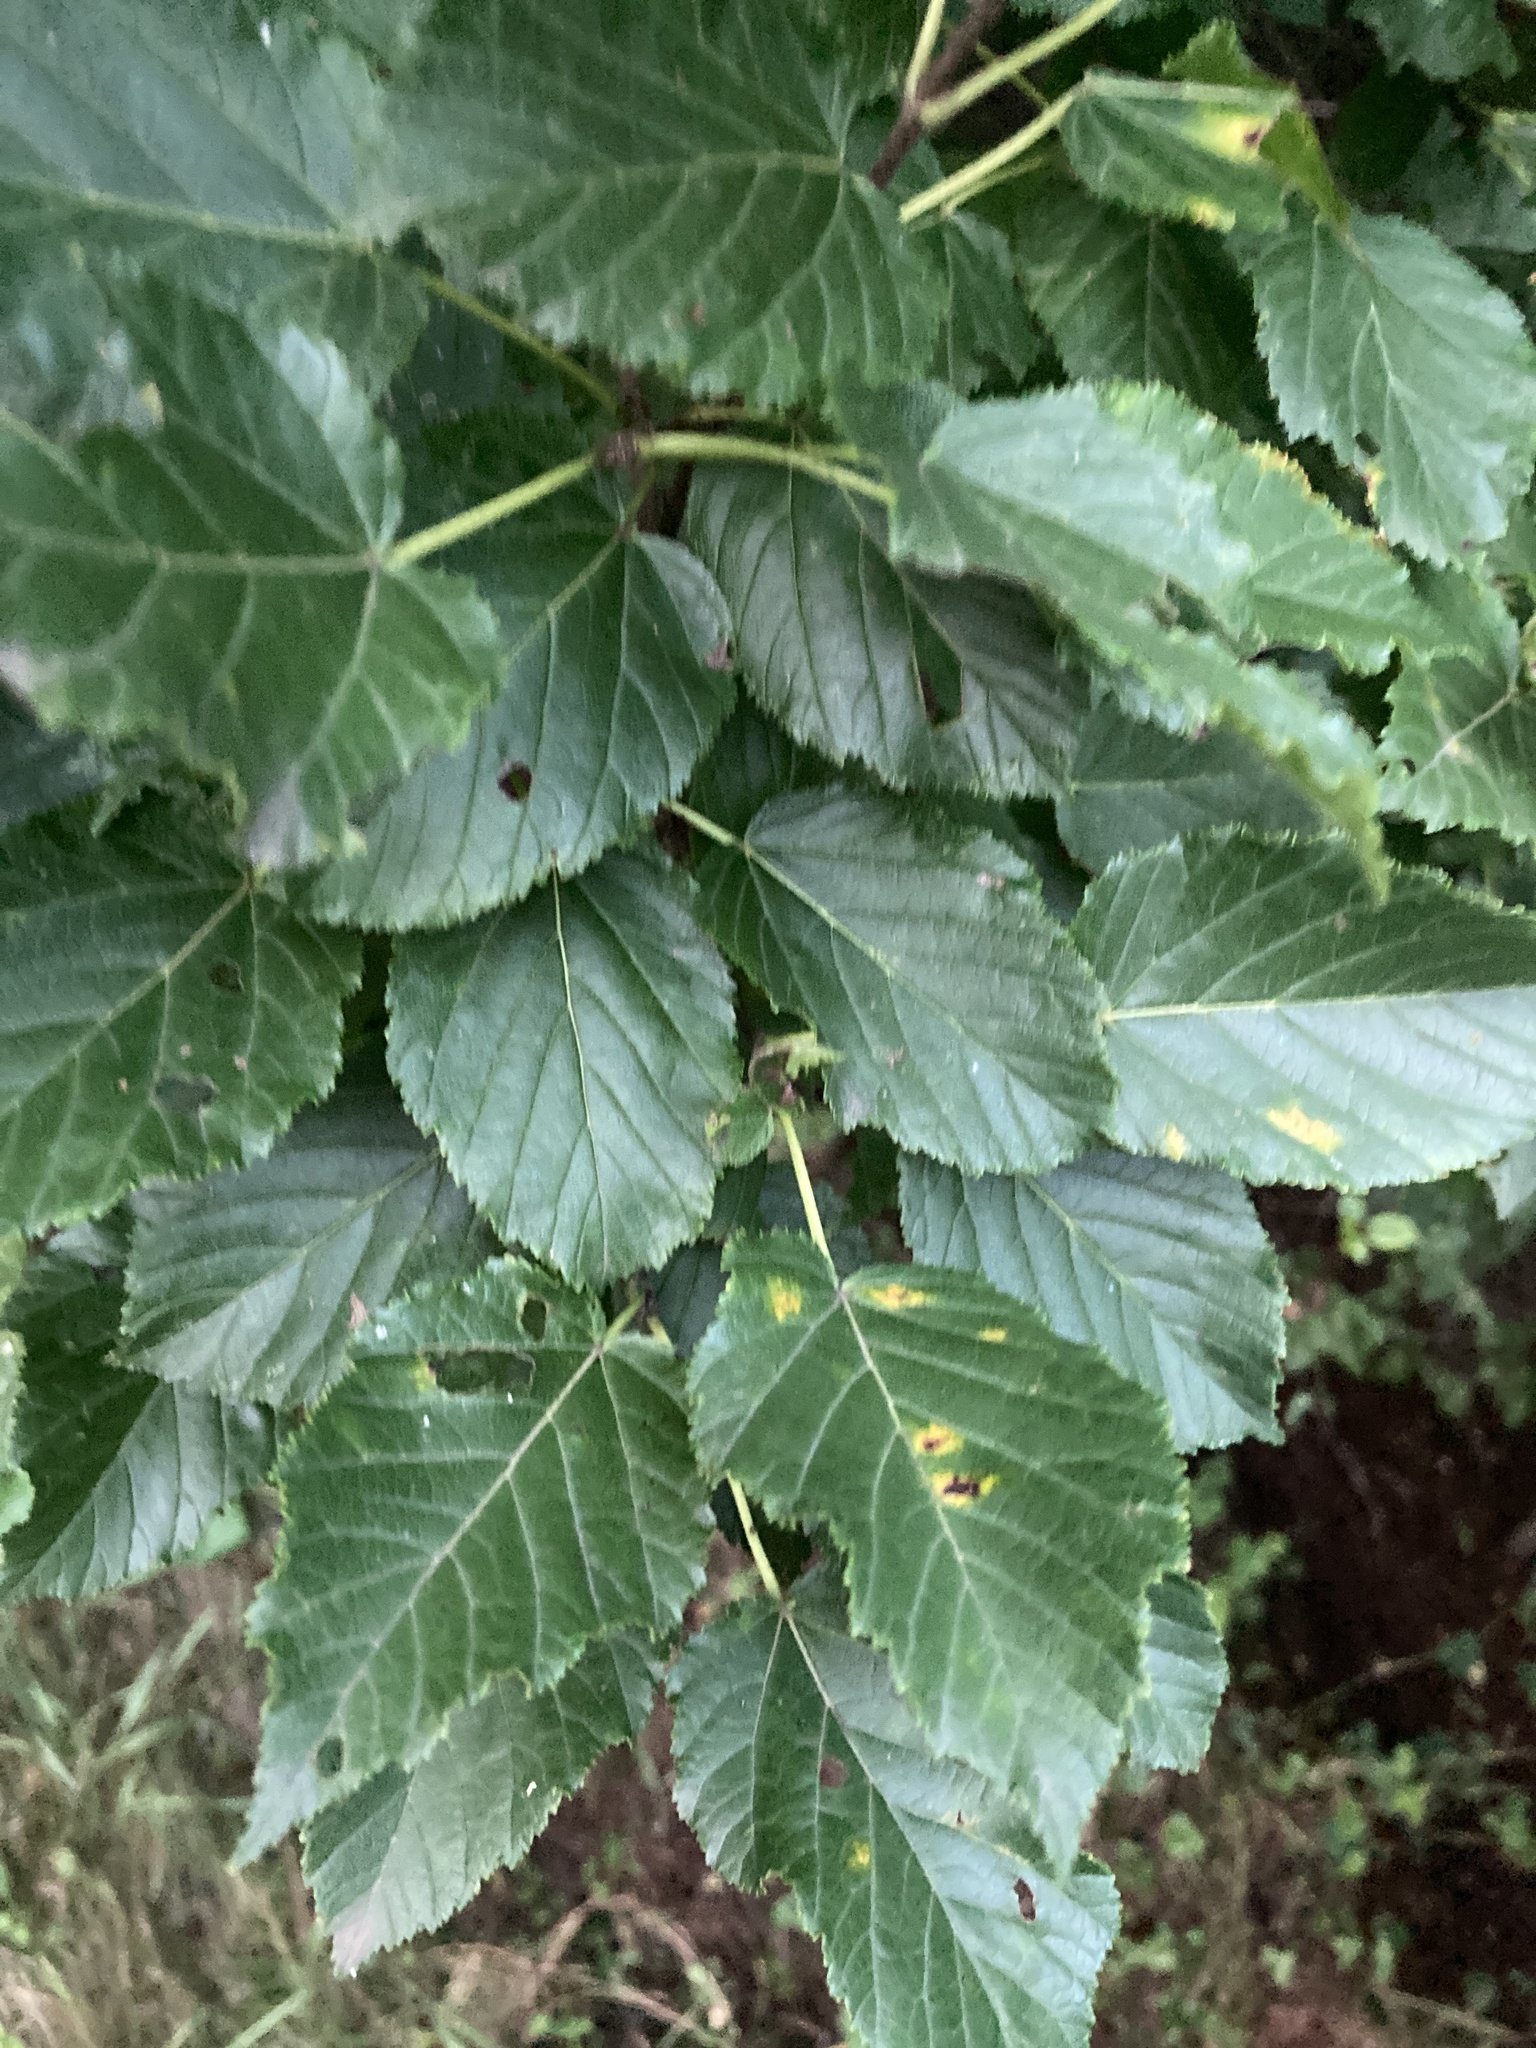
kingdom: Plantae
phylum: Tracheophyta
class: Magnoliopsida
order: Sapindales
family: Sapindaceae
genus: Acer
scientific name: Acer tataricum
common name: Tartar maple
